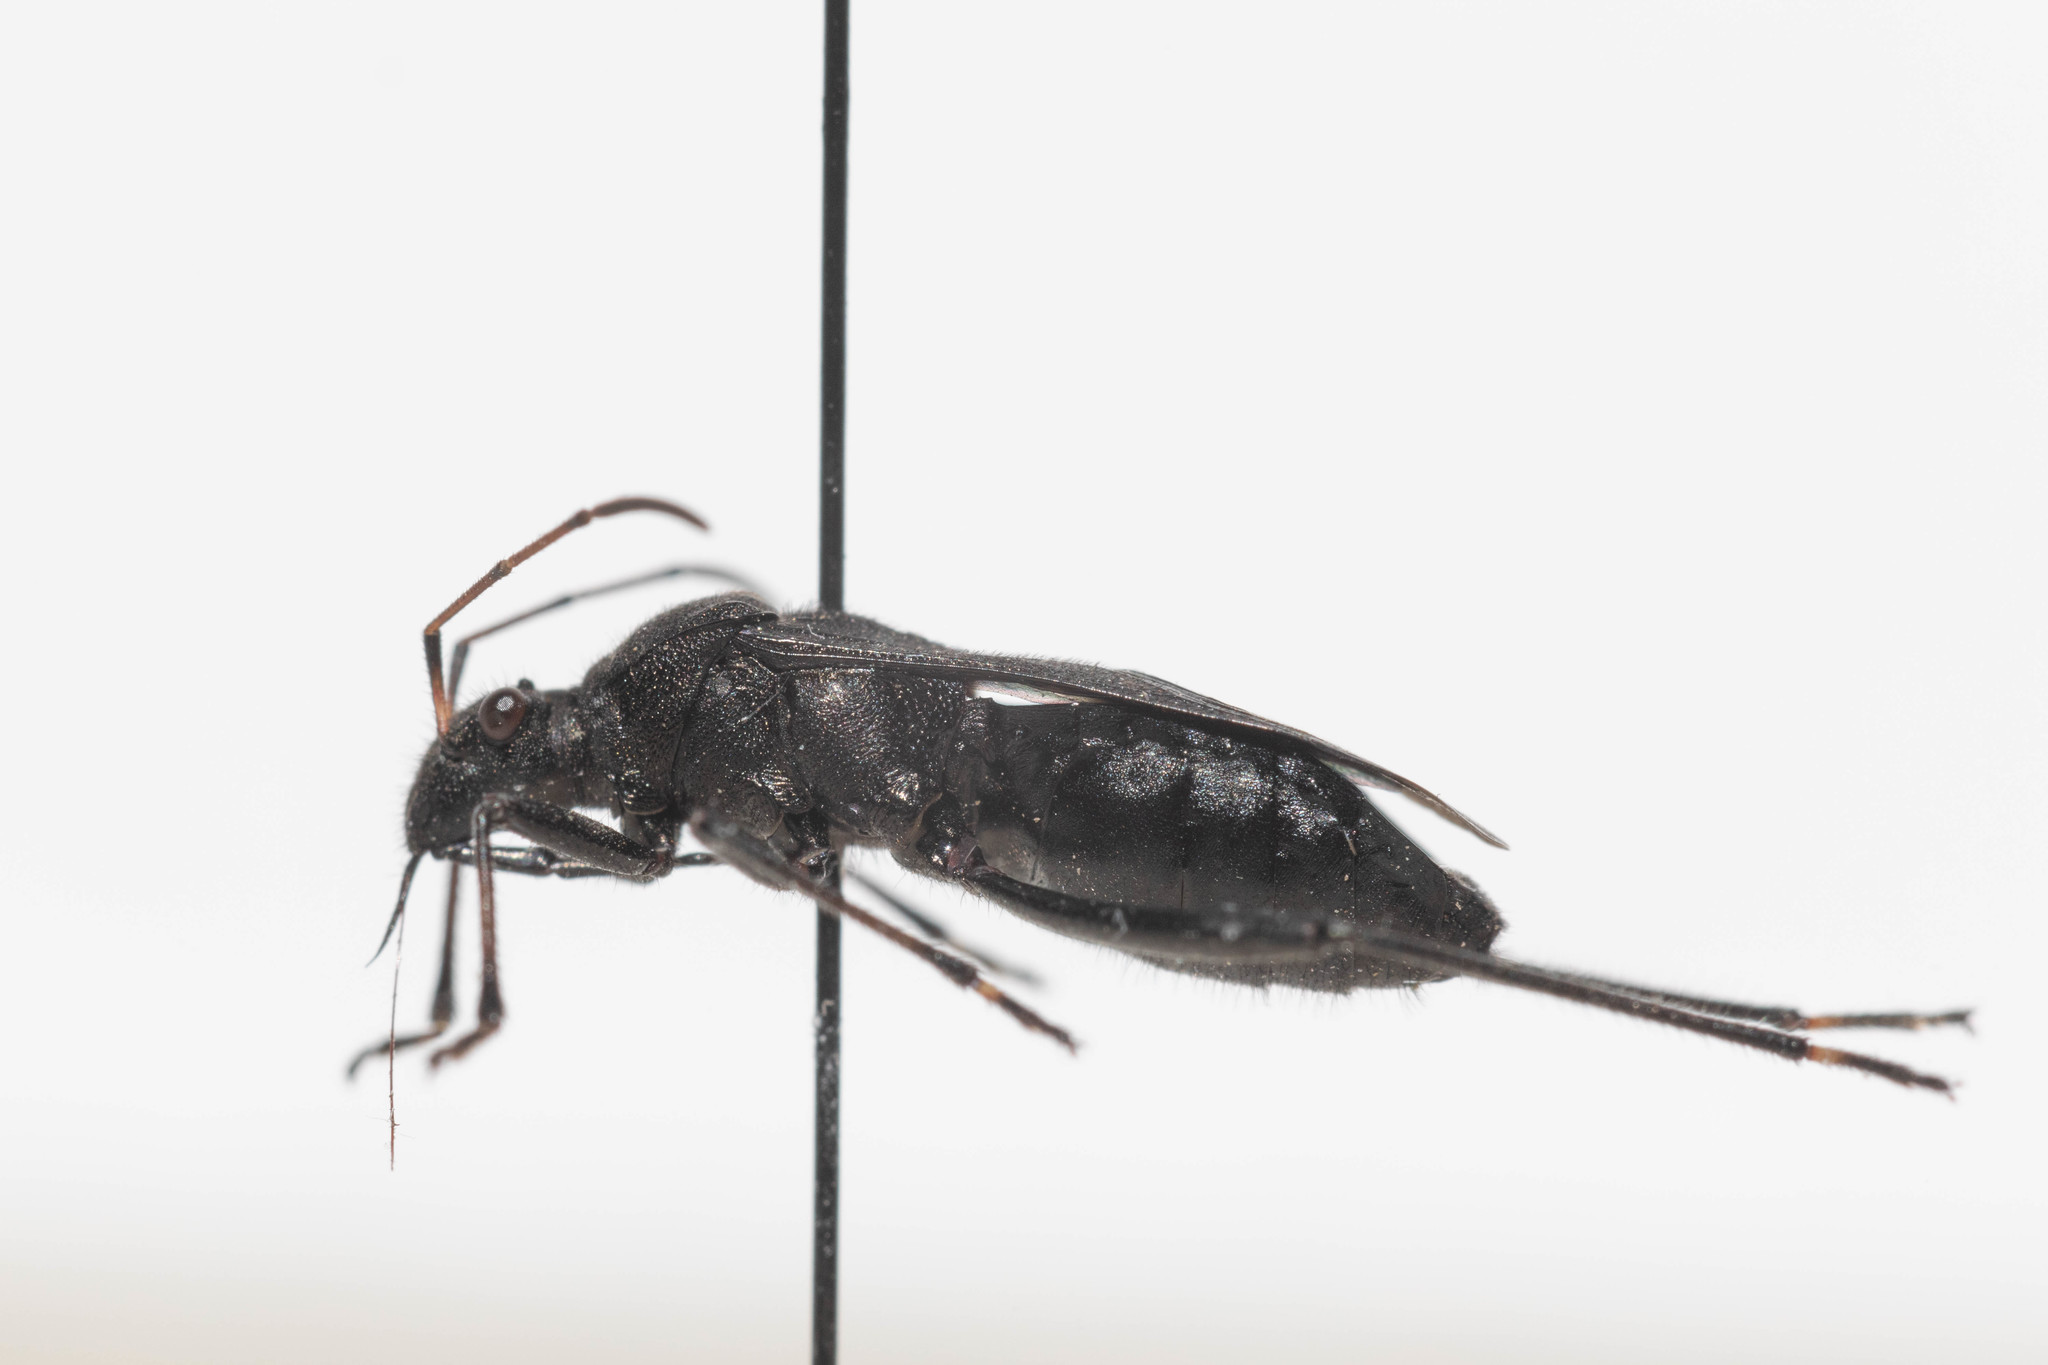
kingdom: Animalia
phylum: Arthropoda
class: Insecta
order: Hemiptera
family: Alydidae
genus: Alydus
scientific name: Alydus conspersus
